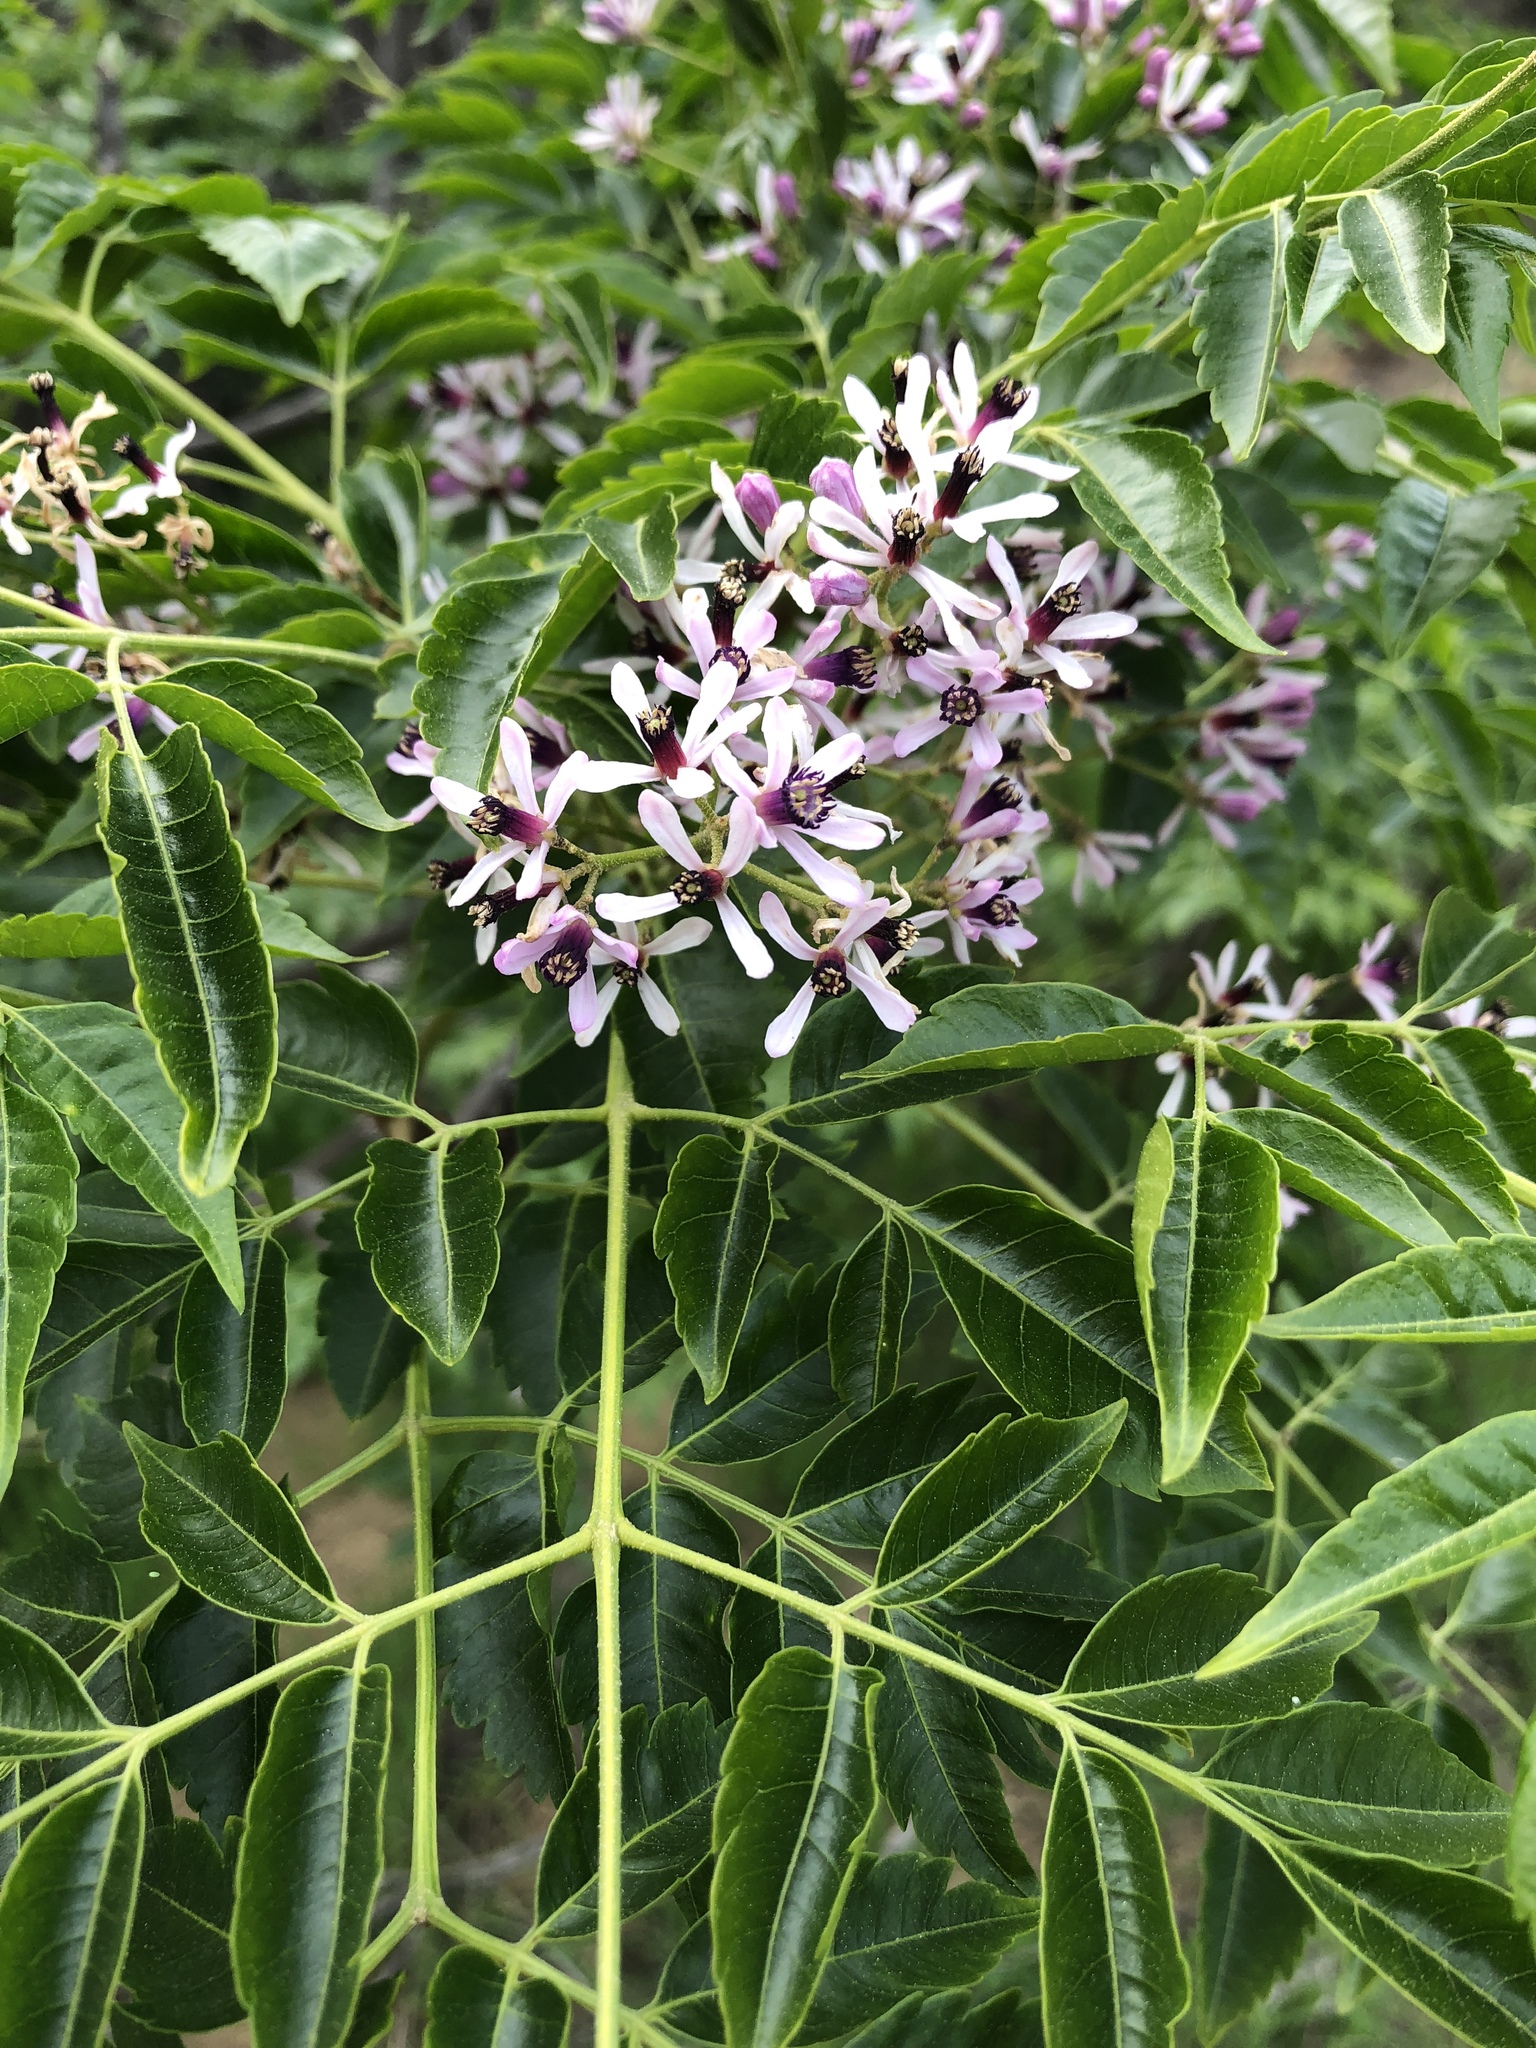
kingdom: Plantae
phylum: Tracheophyta
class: Magnoliopsida
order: Sapindales
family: Meliaceae
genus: Melia
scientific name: Melia azedarach
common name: Chinaberrytree
